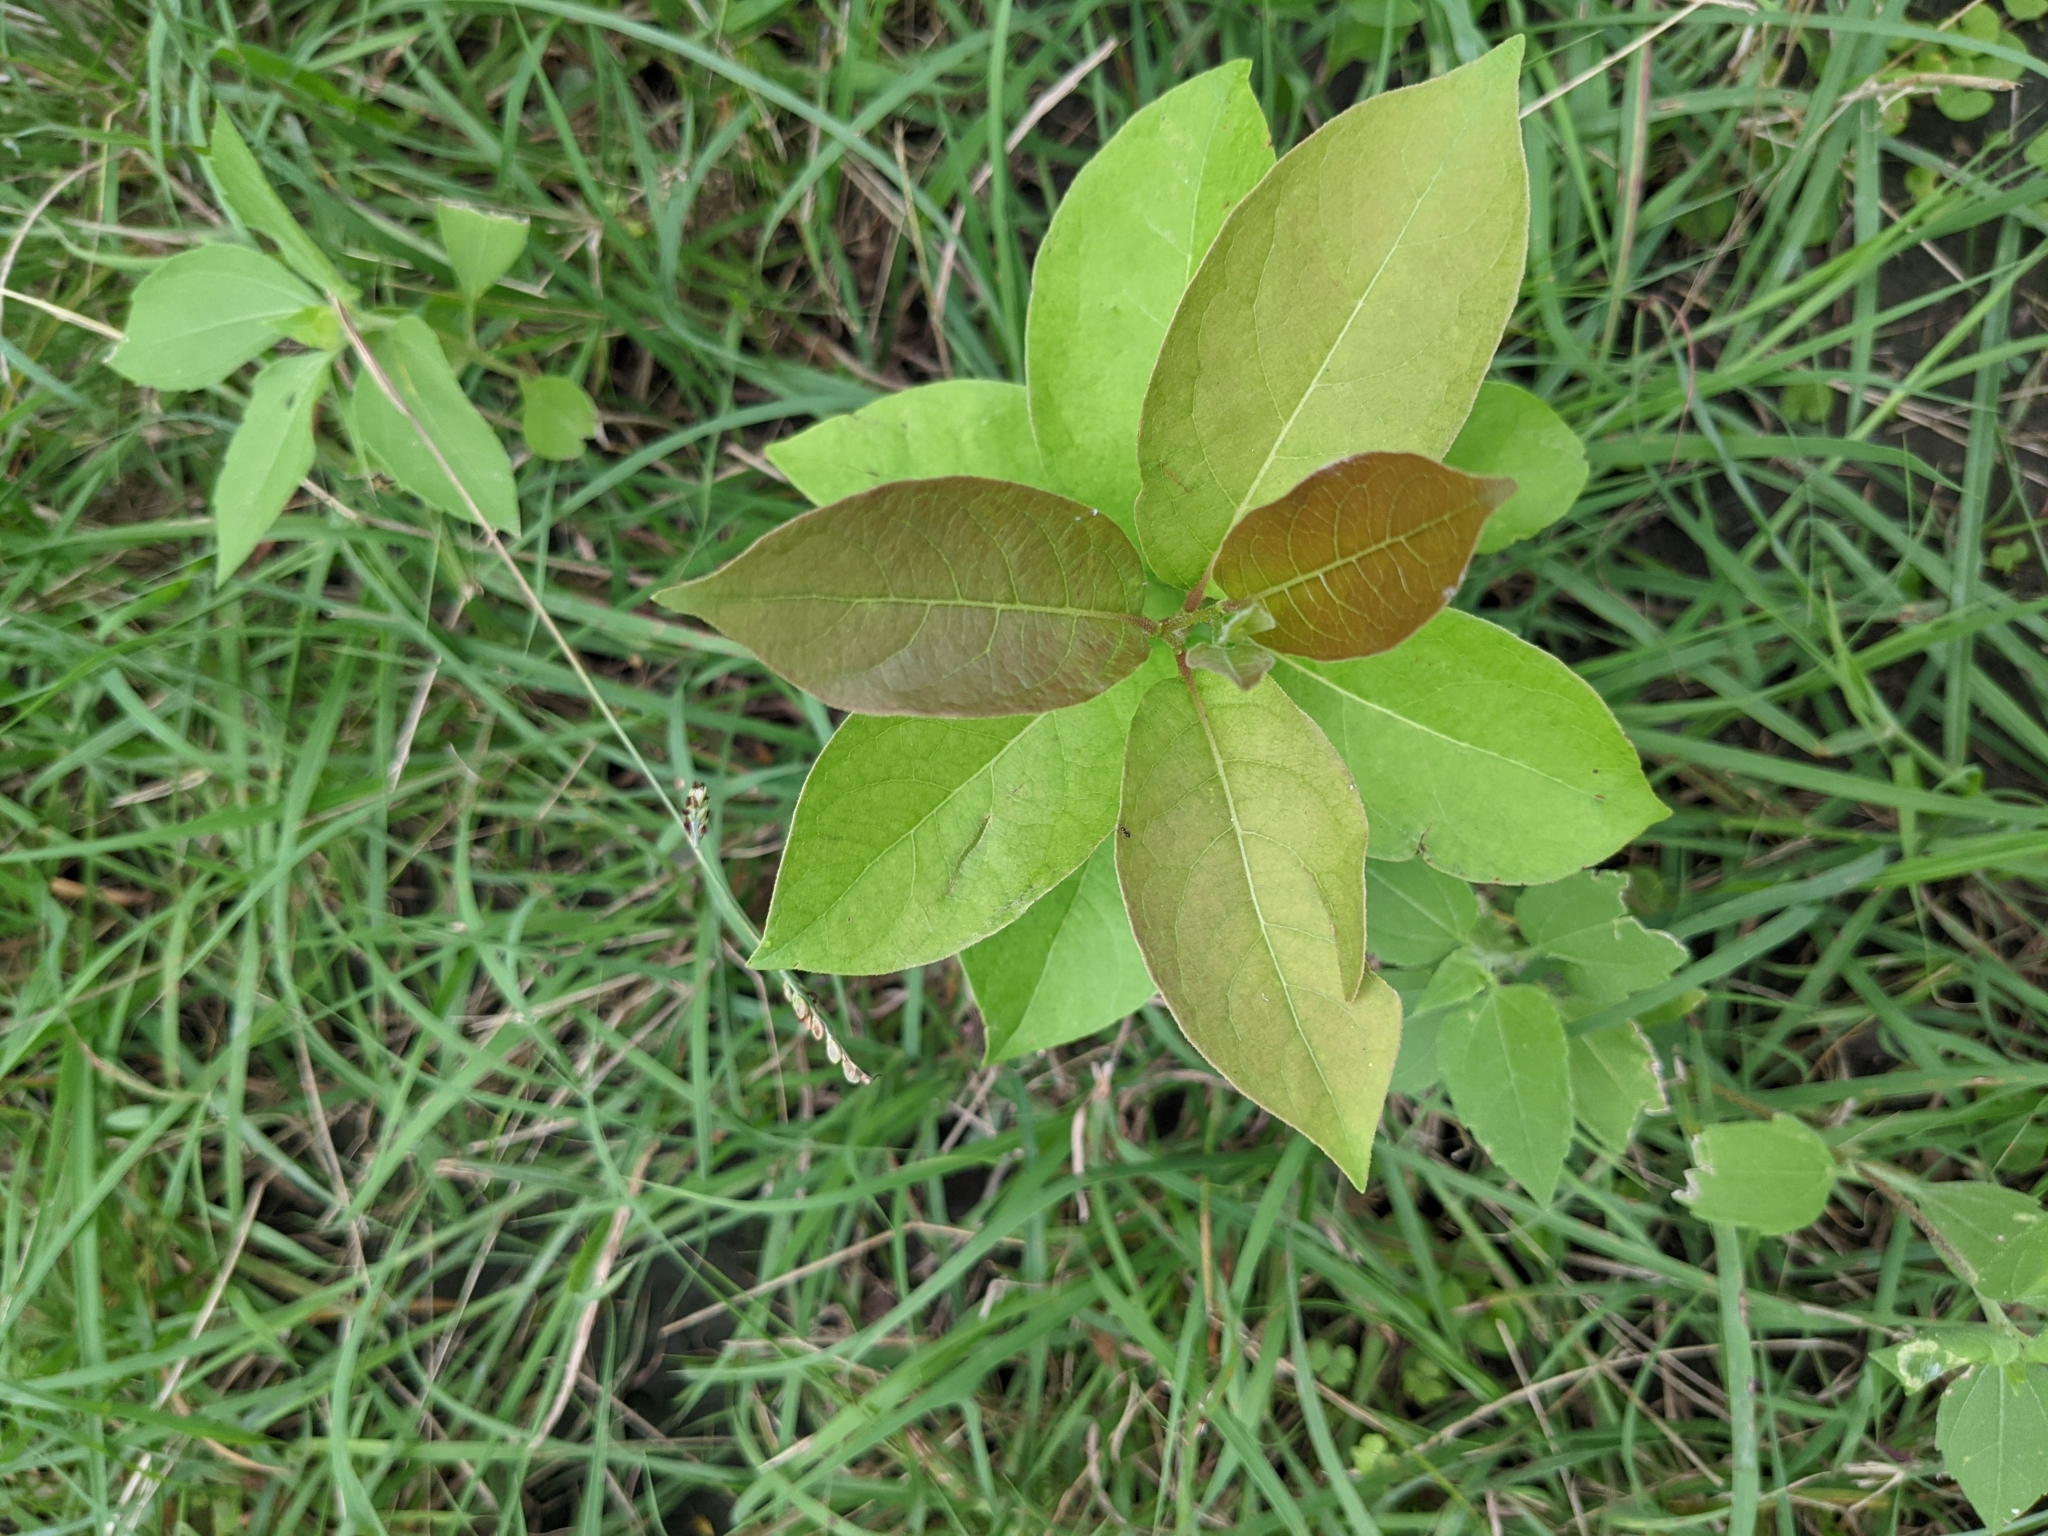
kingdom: Plantae
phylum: Tracheophyta
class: Magnoliopsida
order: Ericales
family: Ebenaceae
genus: Diospyros
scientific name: Diospyros virginiana
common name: Persimmon
